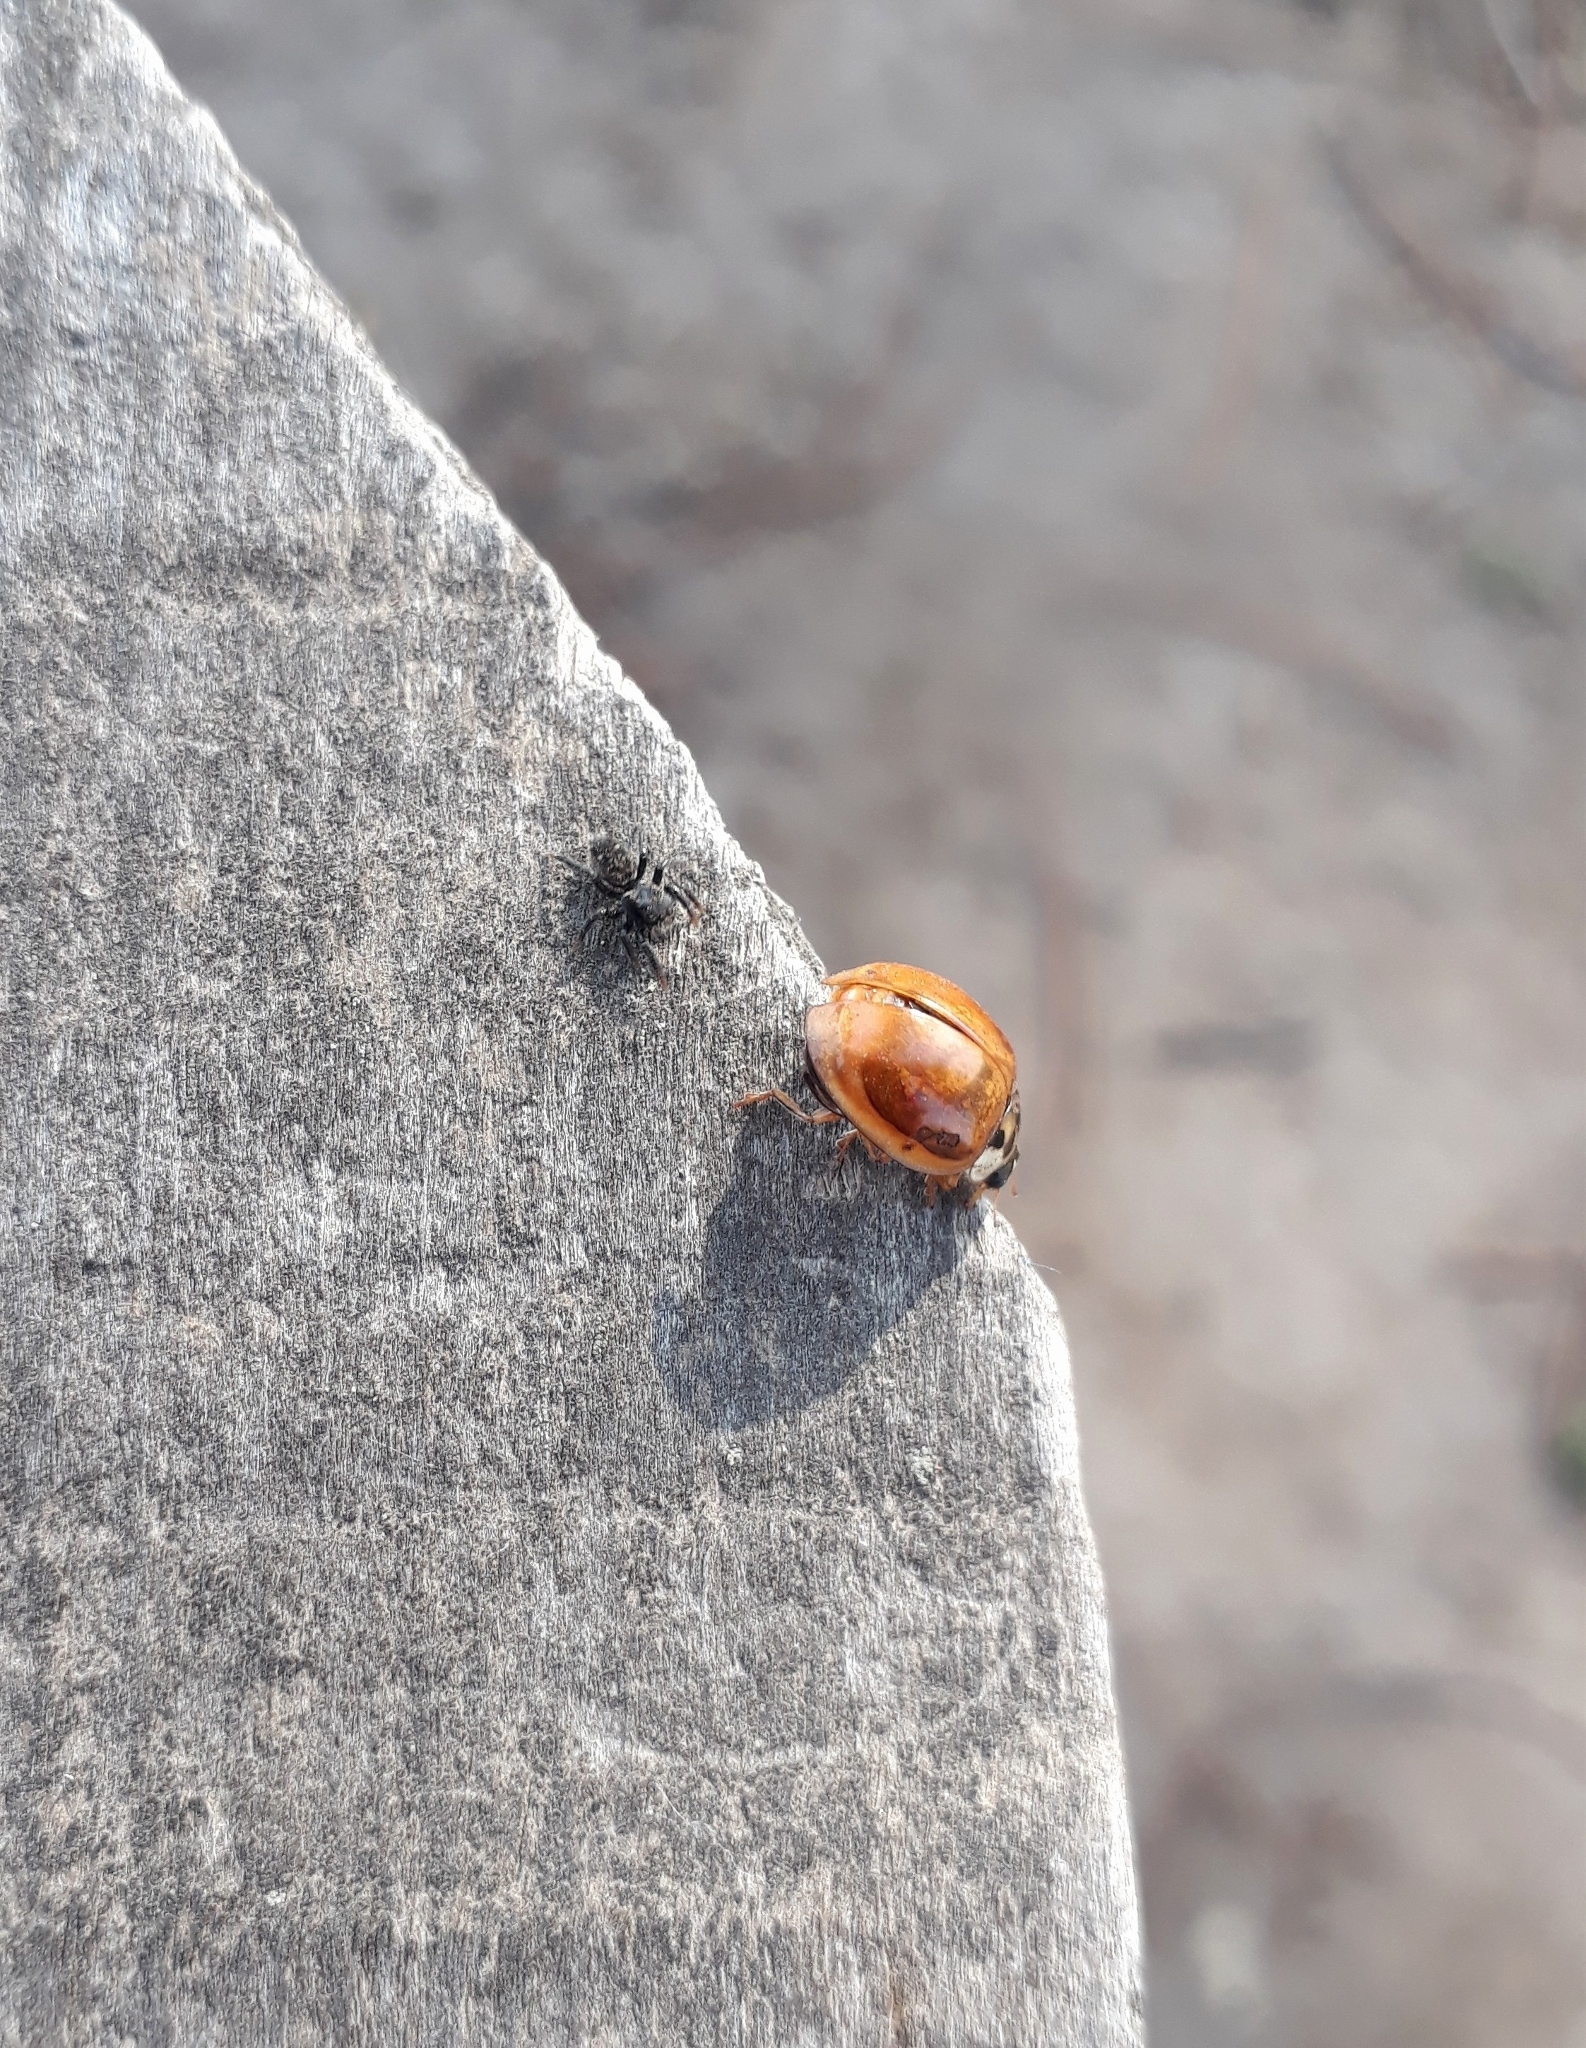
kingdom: Animalia
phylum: Arthropoda
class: Insecta
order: Coleoptera
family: Coccinellidae
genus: Harmonia
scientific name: Harmonia axyridis
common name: Harlequin ladybird
